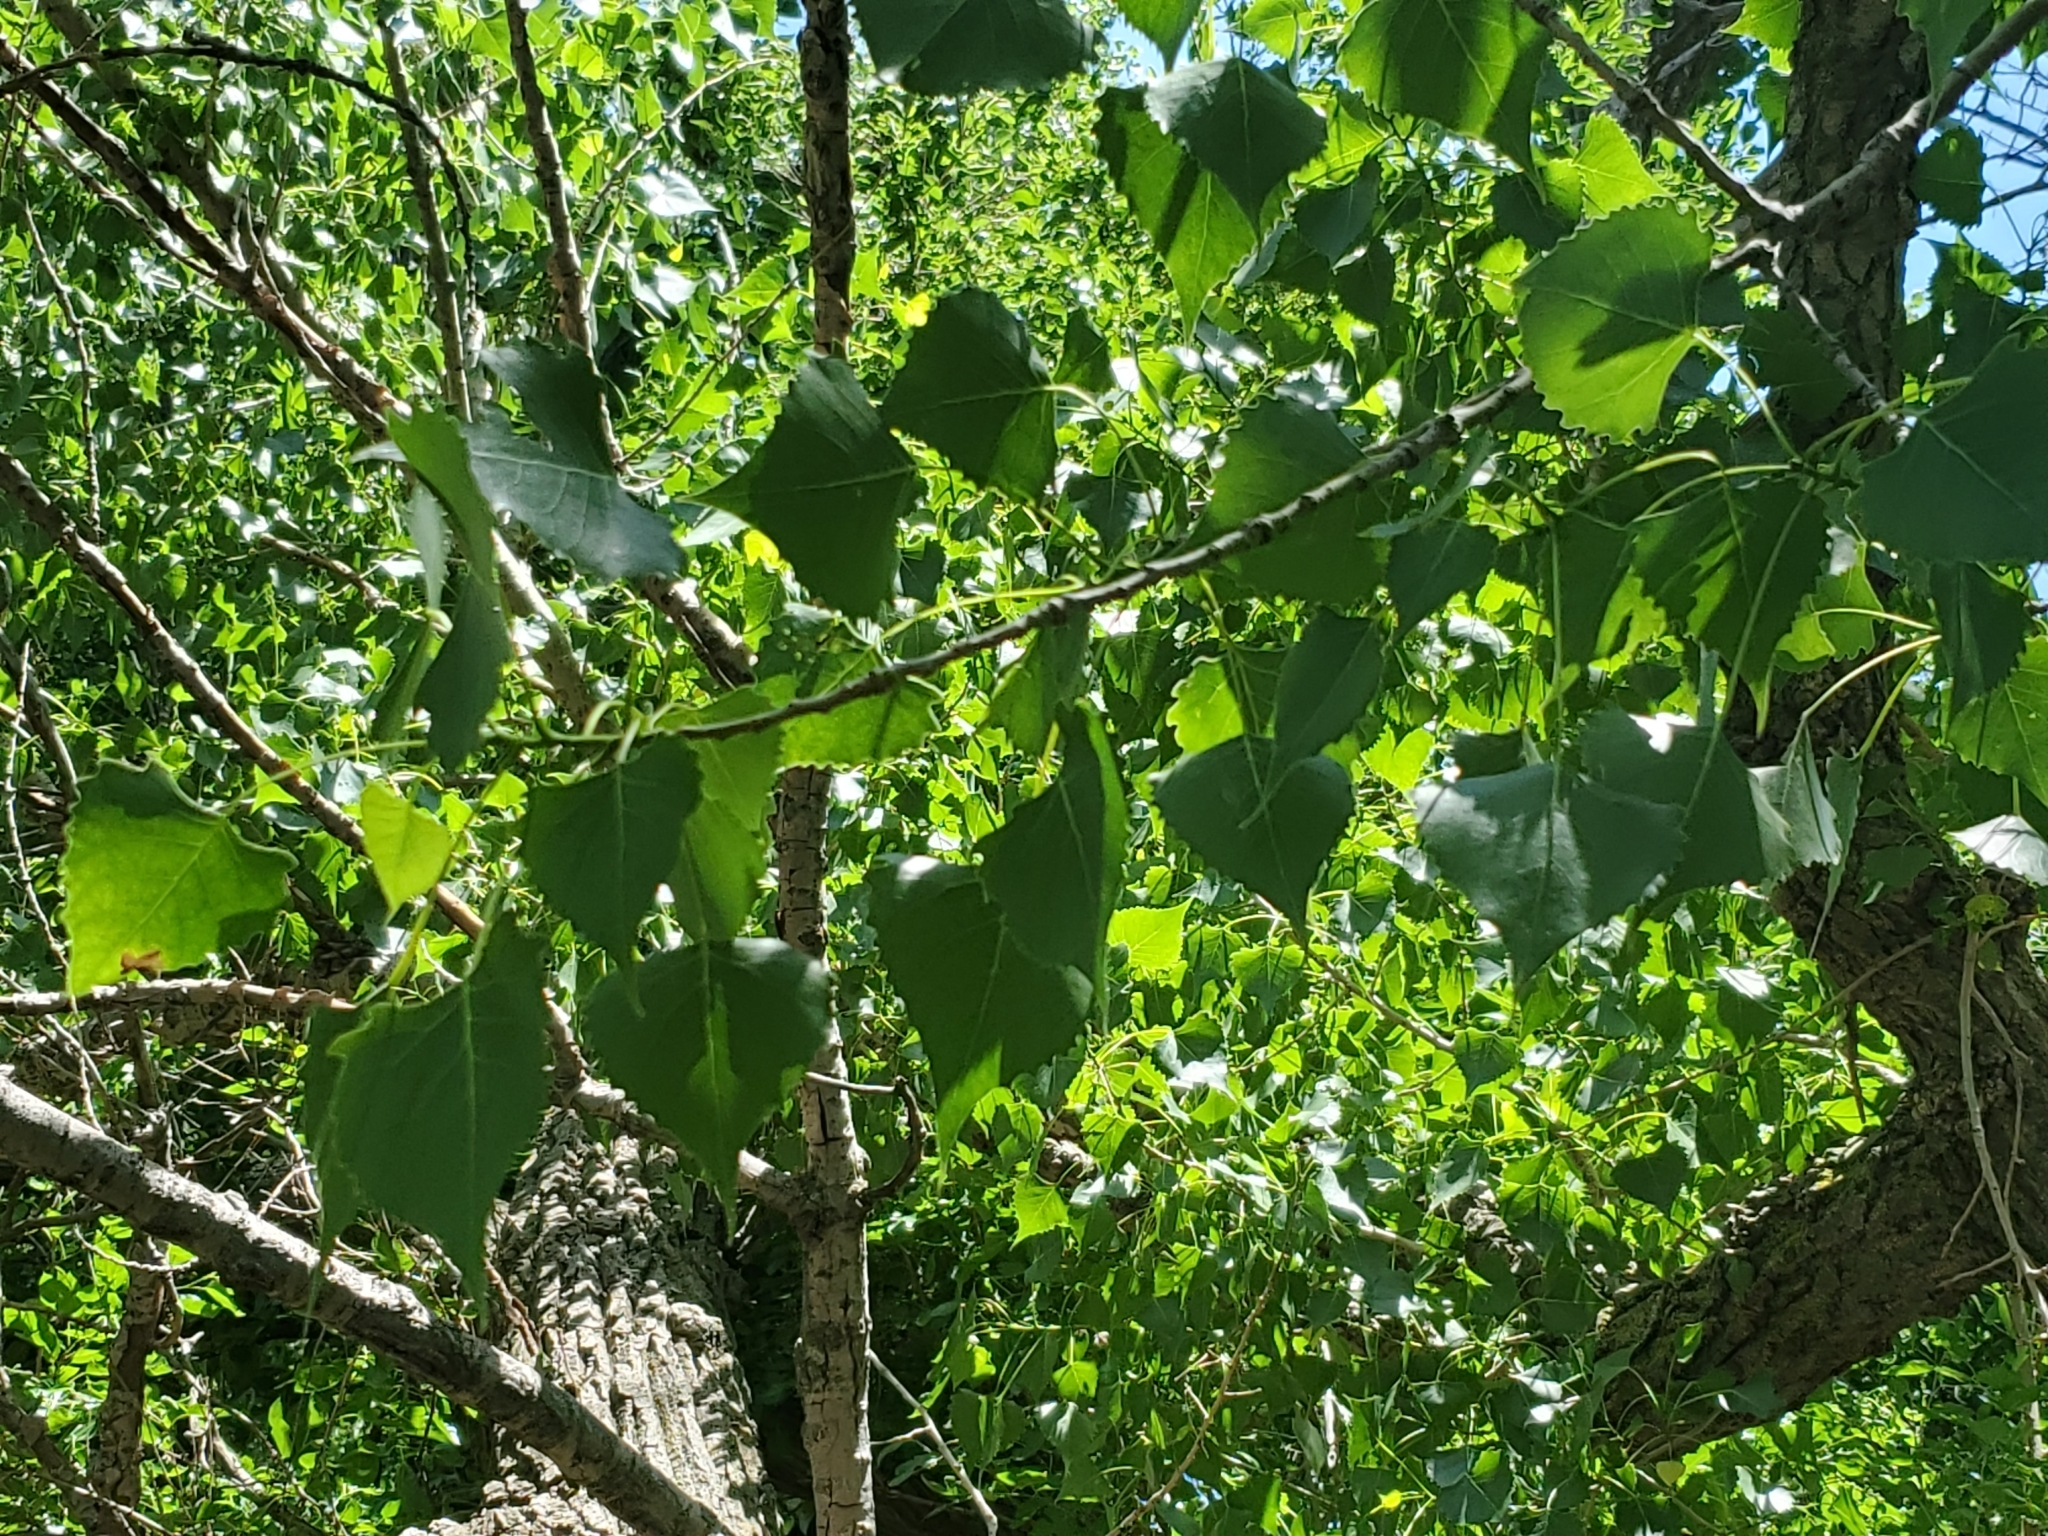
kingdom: Plantae
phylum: Tracheophyta
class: Magnoliopsida
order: Malpighiales
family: Salicaceae
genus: Populus
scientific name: Populus deltoides
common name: Eastern cottonwood
